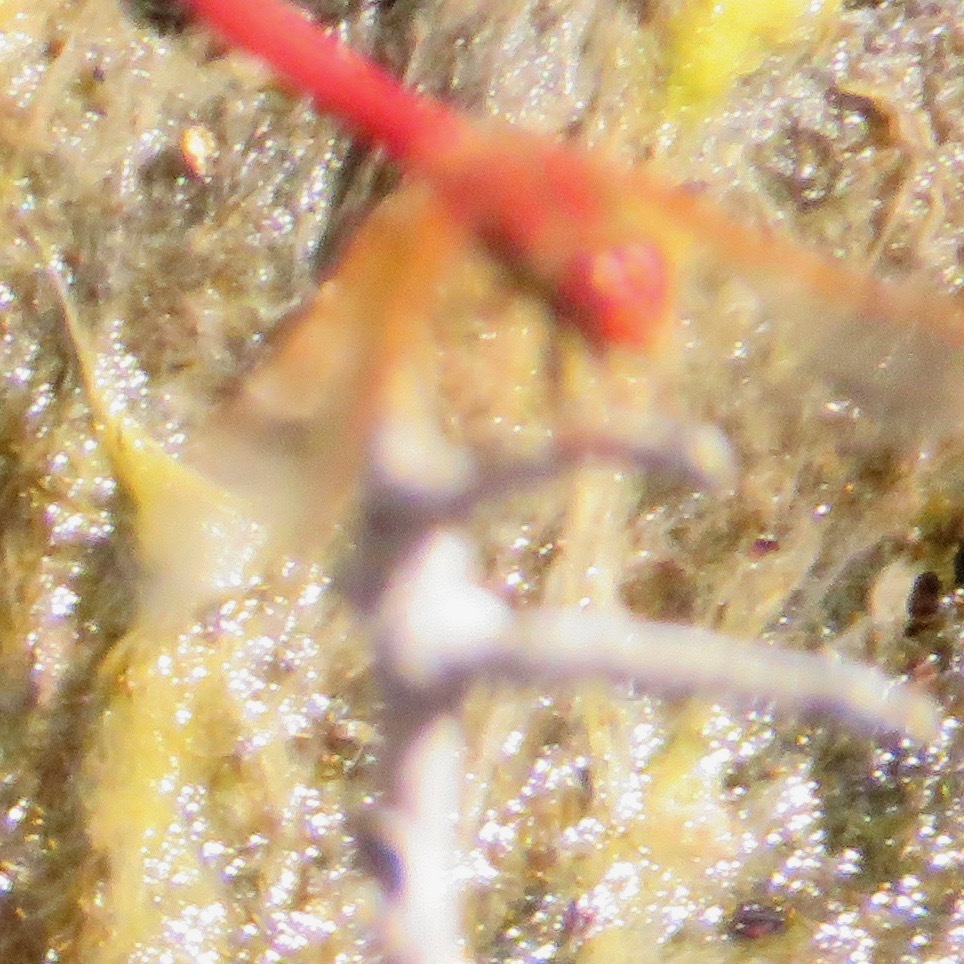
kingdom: Animalia
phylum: Arthropoda
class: Insecta
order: Odonata
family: Libellulidae
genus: Sympetrum
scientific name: Sympetrum illotum
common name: Cardinal meadowhawk
